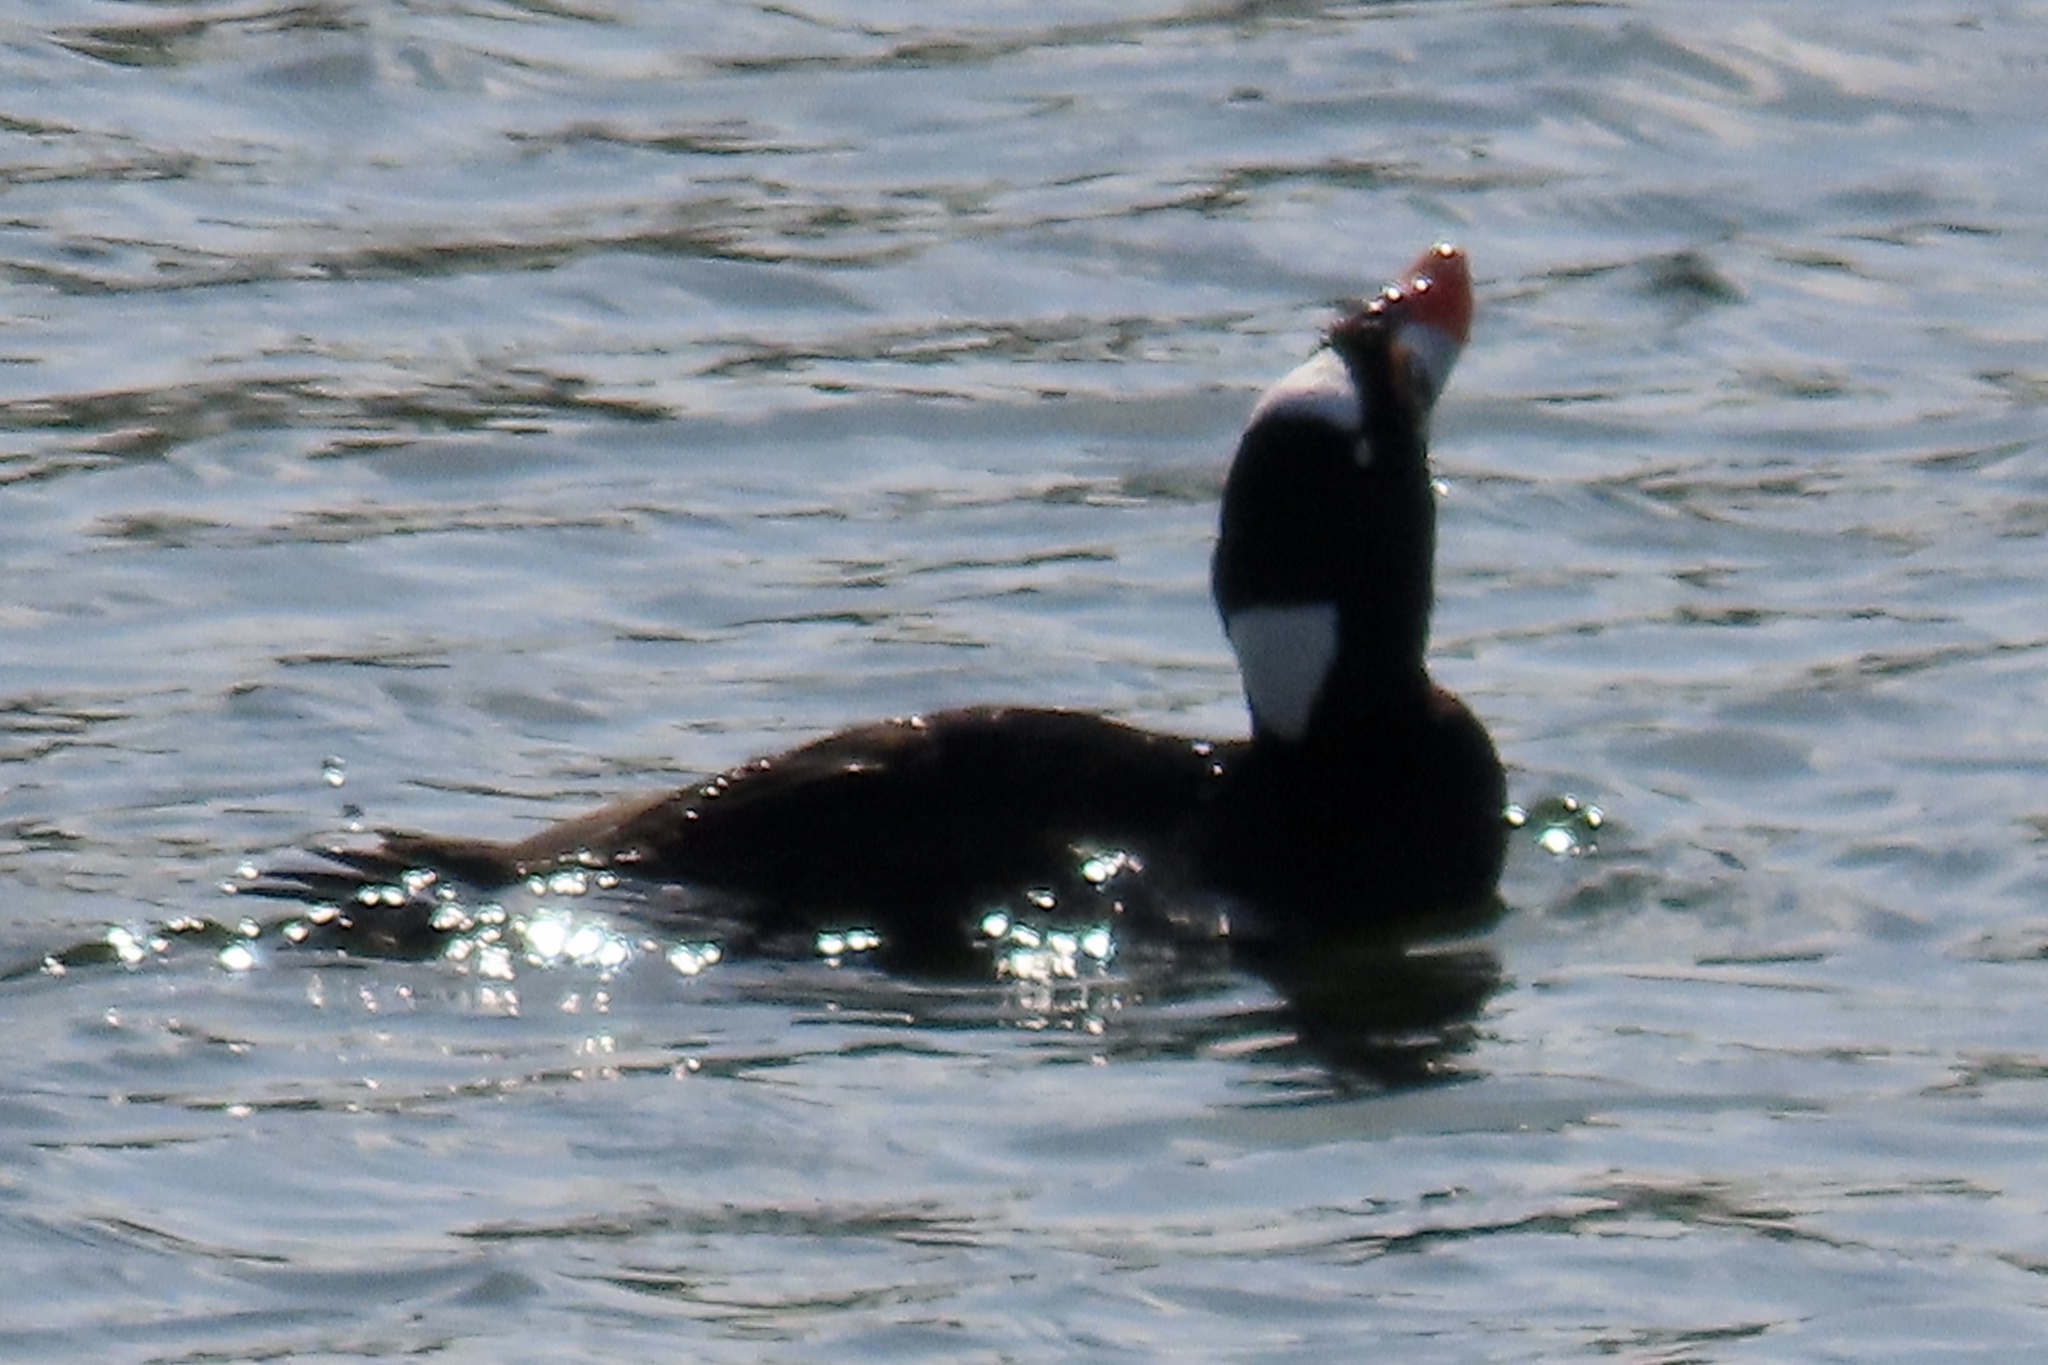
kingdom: Animalia
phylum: Chordata
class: Aves
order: Anseriformes
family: Anatidae
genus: Melanitta
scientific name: Melanitta perspicillata
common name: Surf scoter
